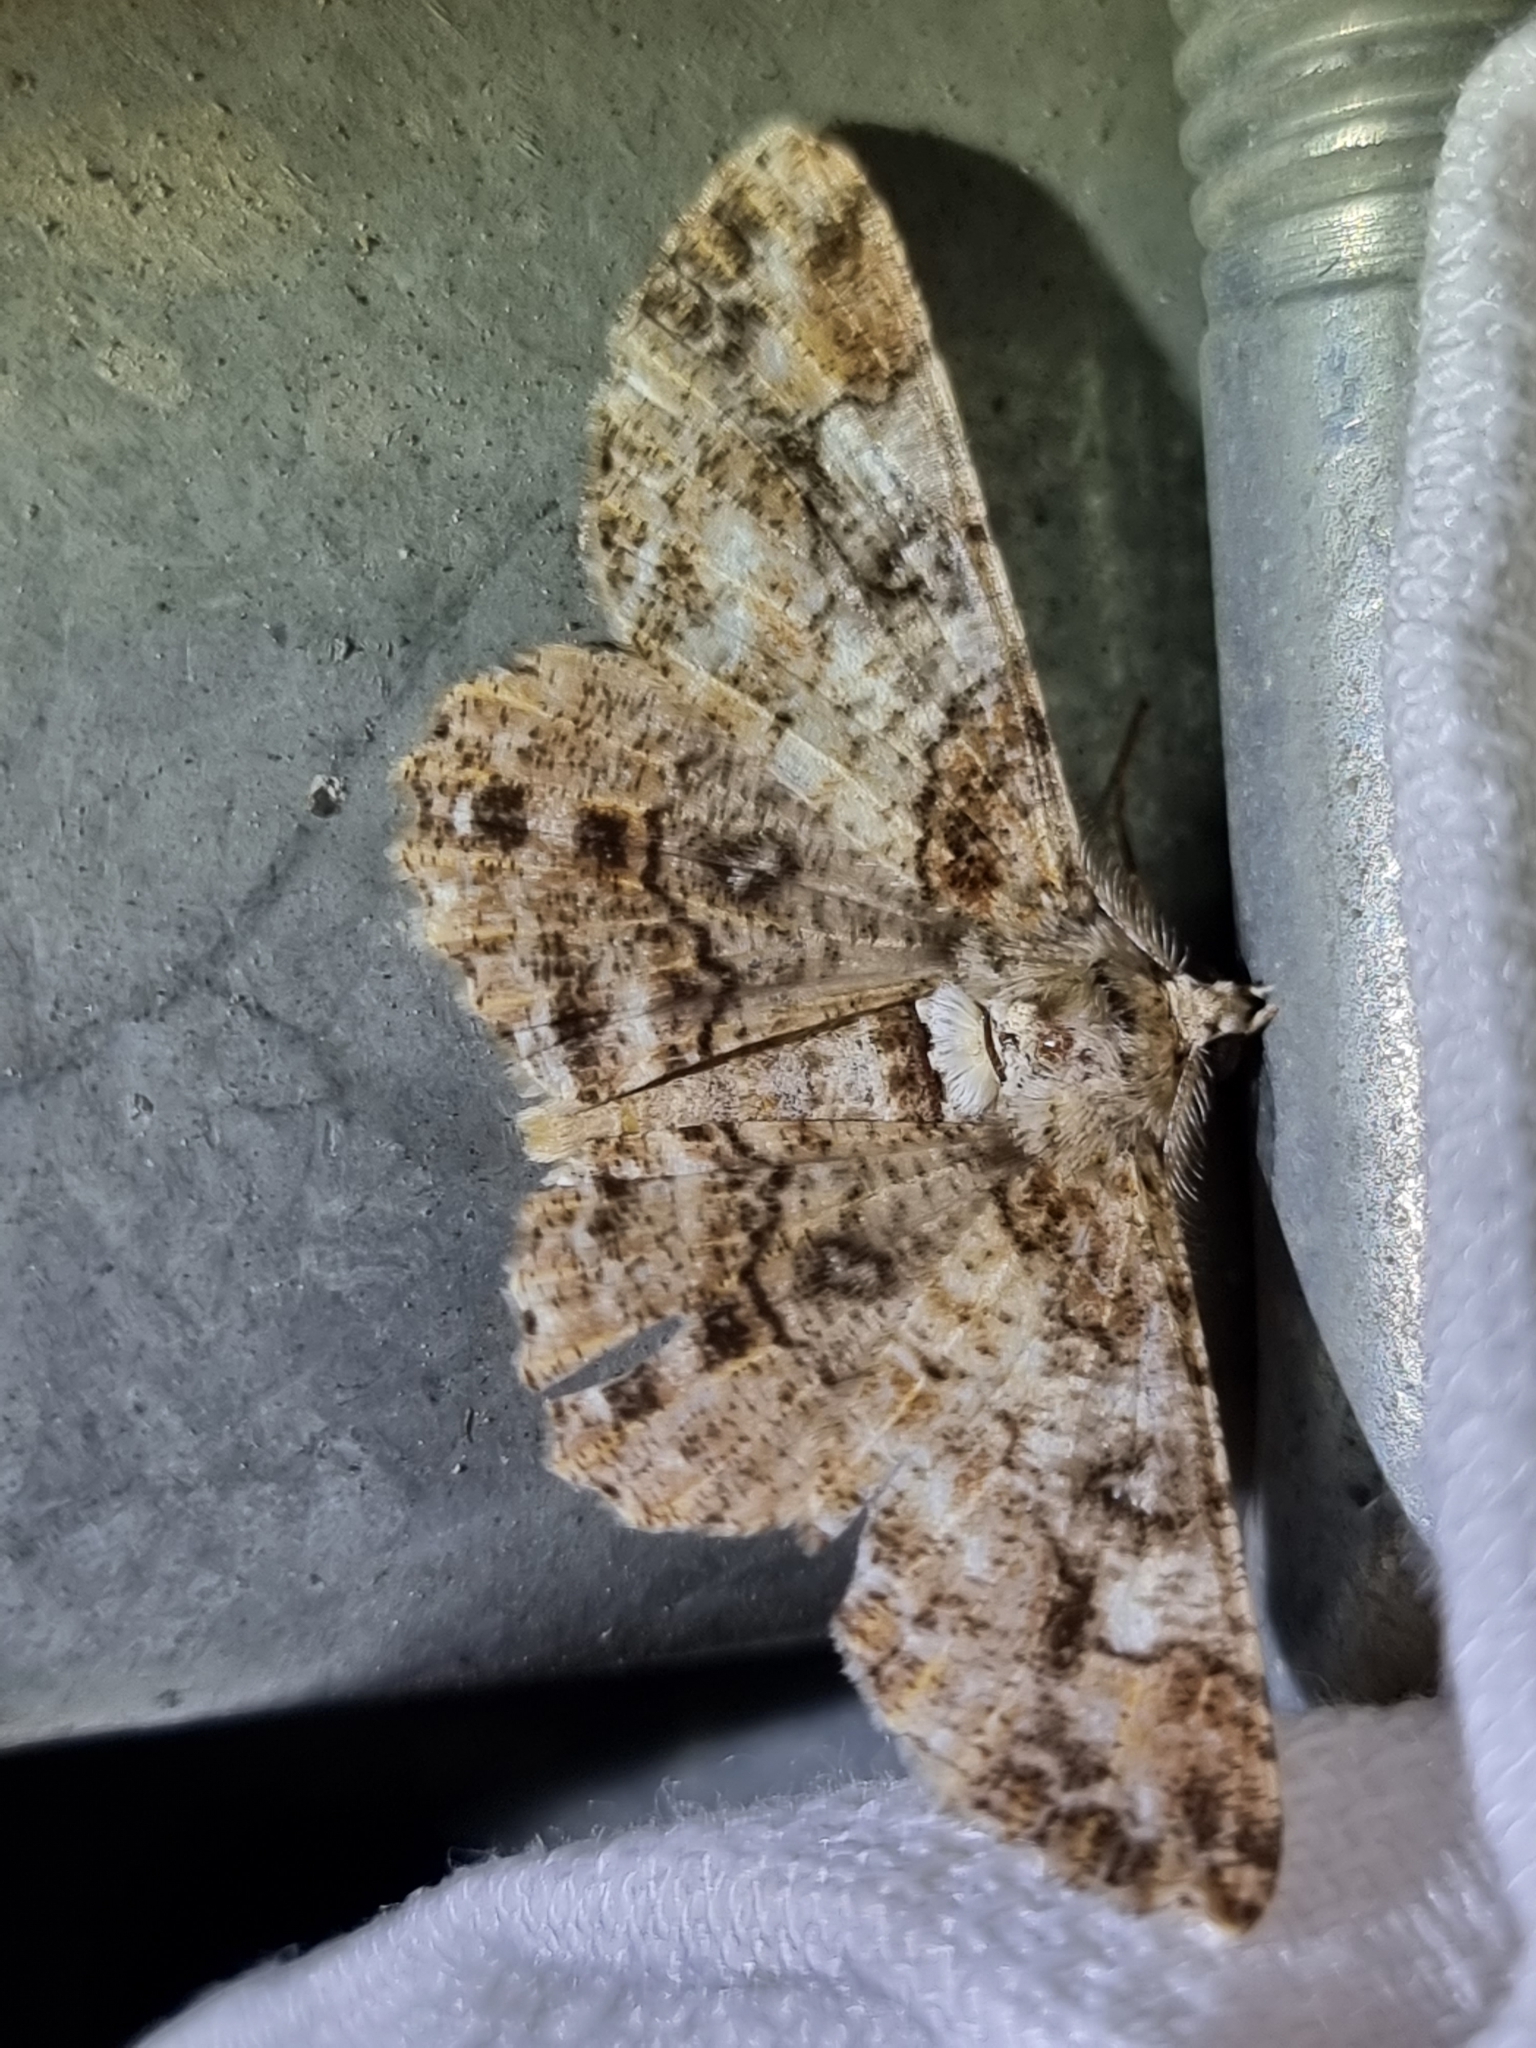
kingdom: Animalia
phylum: Arthropoda
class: Insecta
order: Lepidoptera
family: Geometridae
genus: Cleora
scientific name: Cleora illustraria
